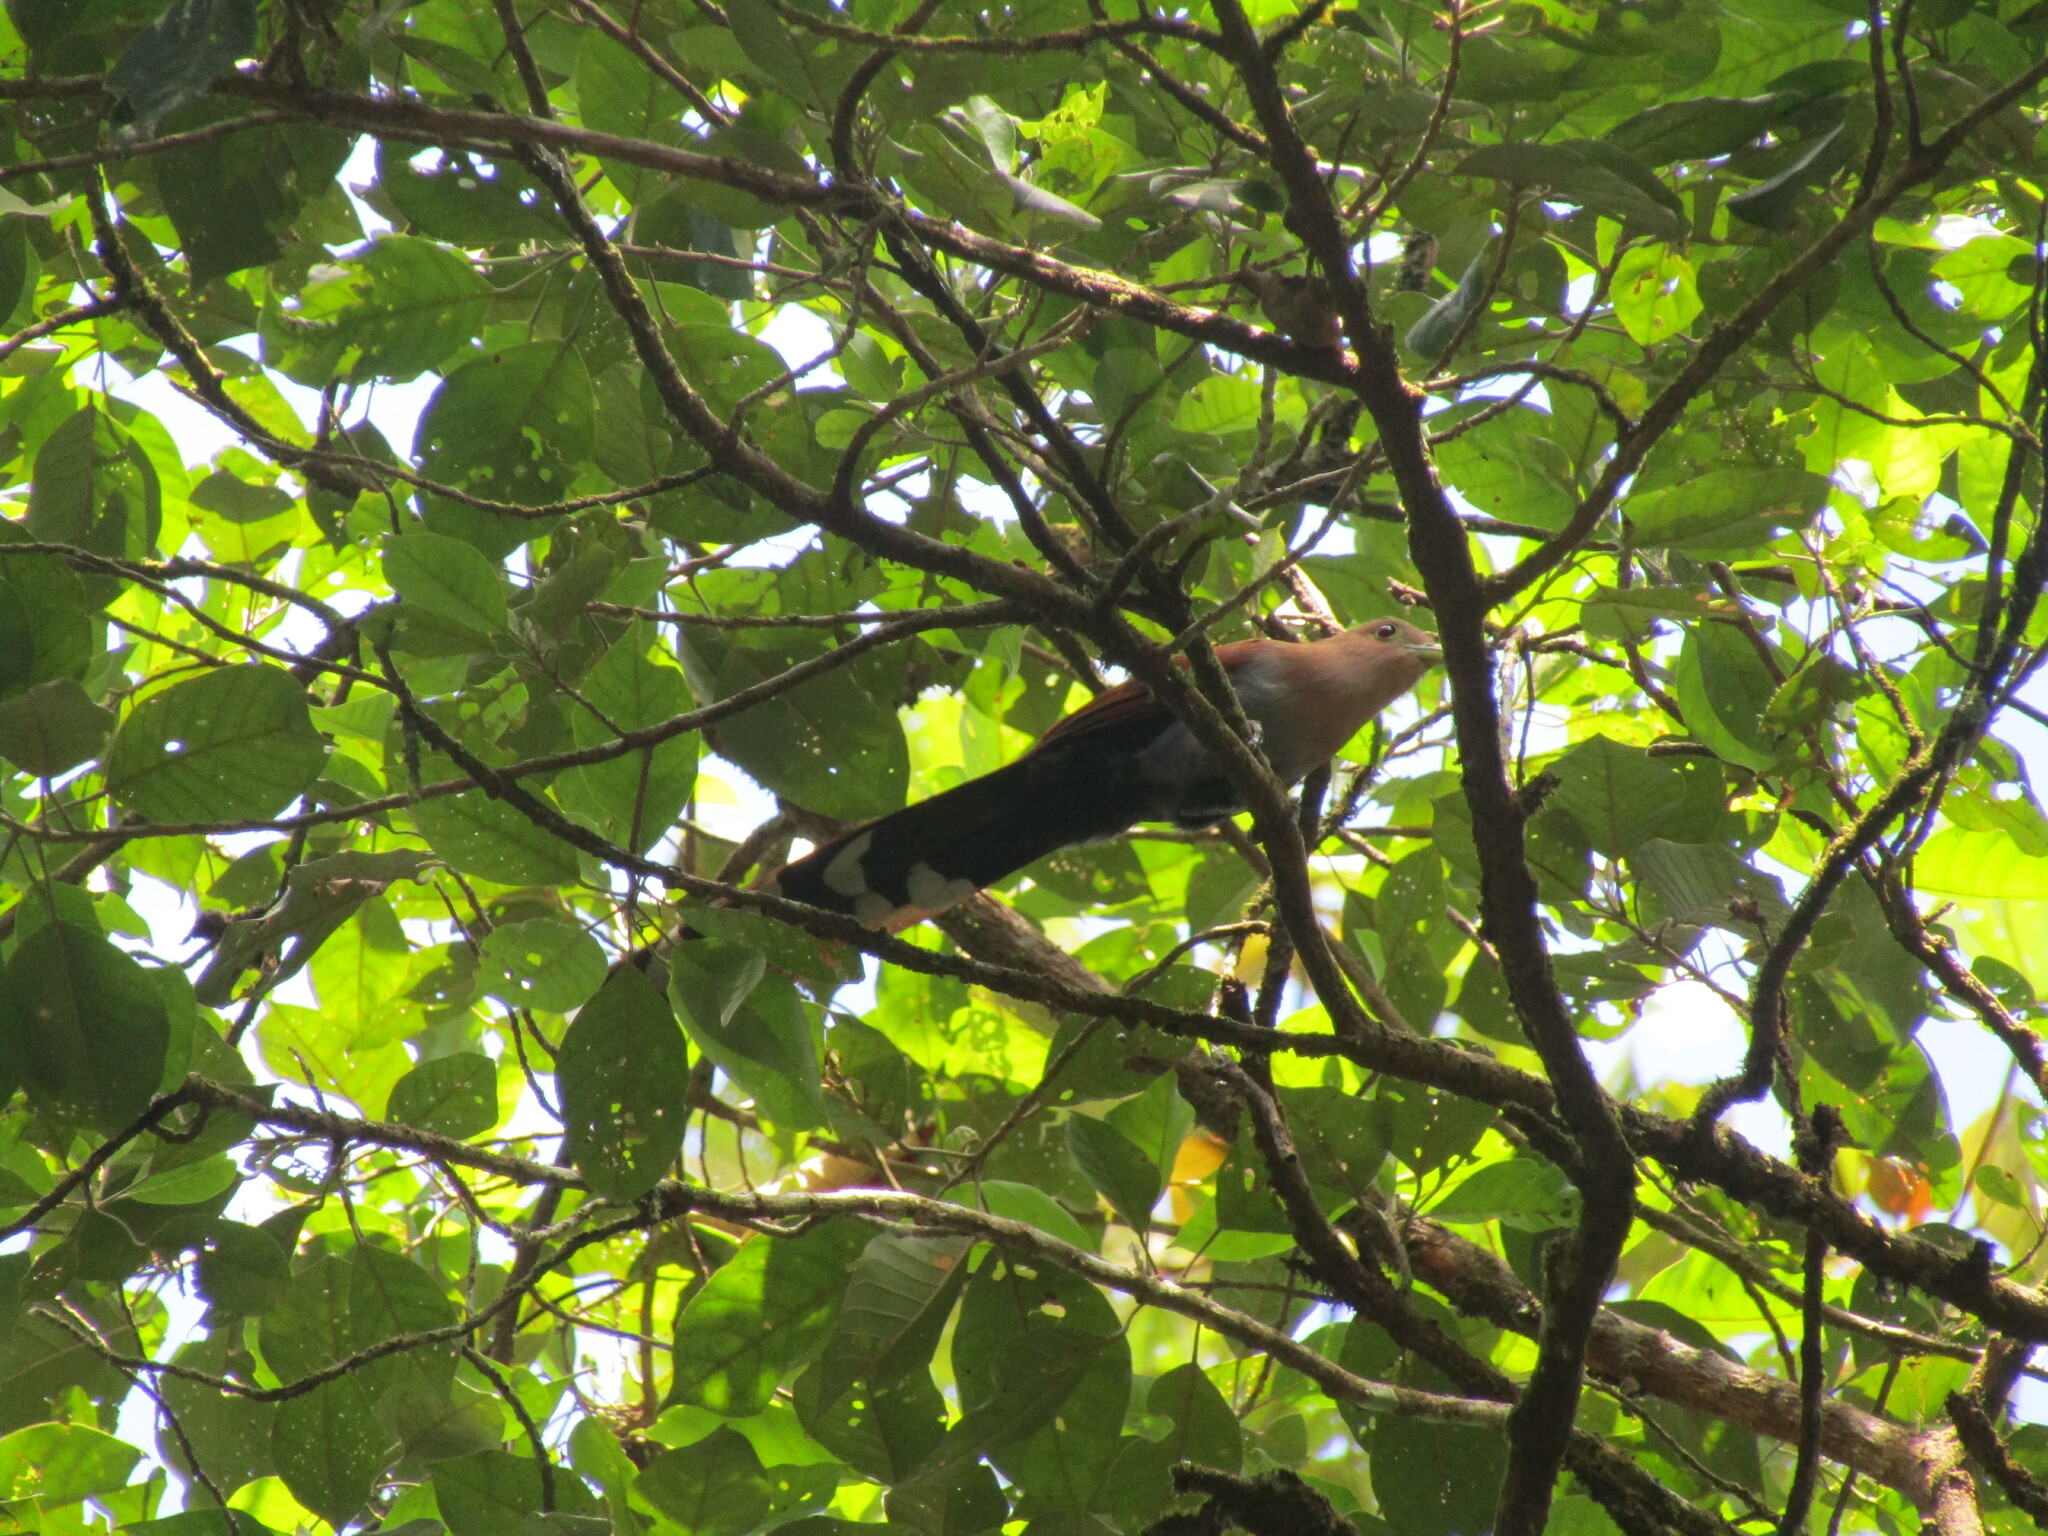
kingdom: Animalia
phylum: Chordata
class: Aves
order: Cuculiformes
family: Cuculidae
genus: Piaya
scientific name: Piaya cayana
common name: Squirrel cuckoo
